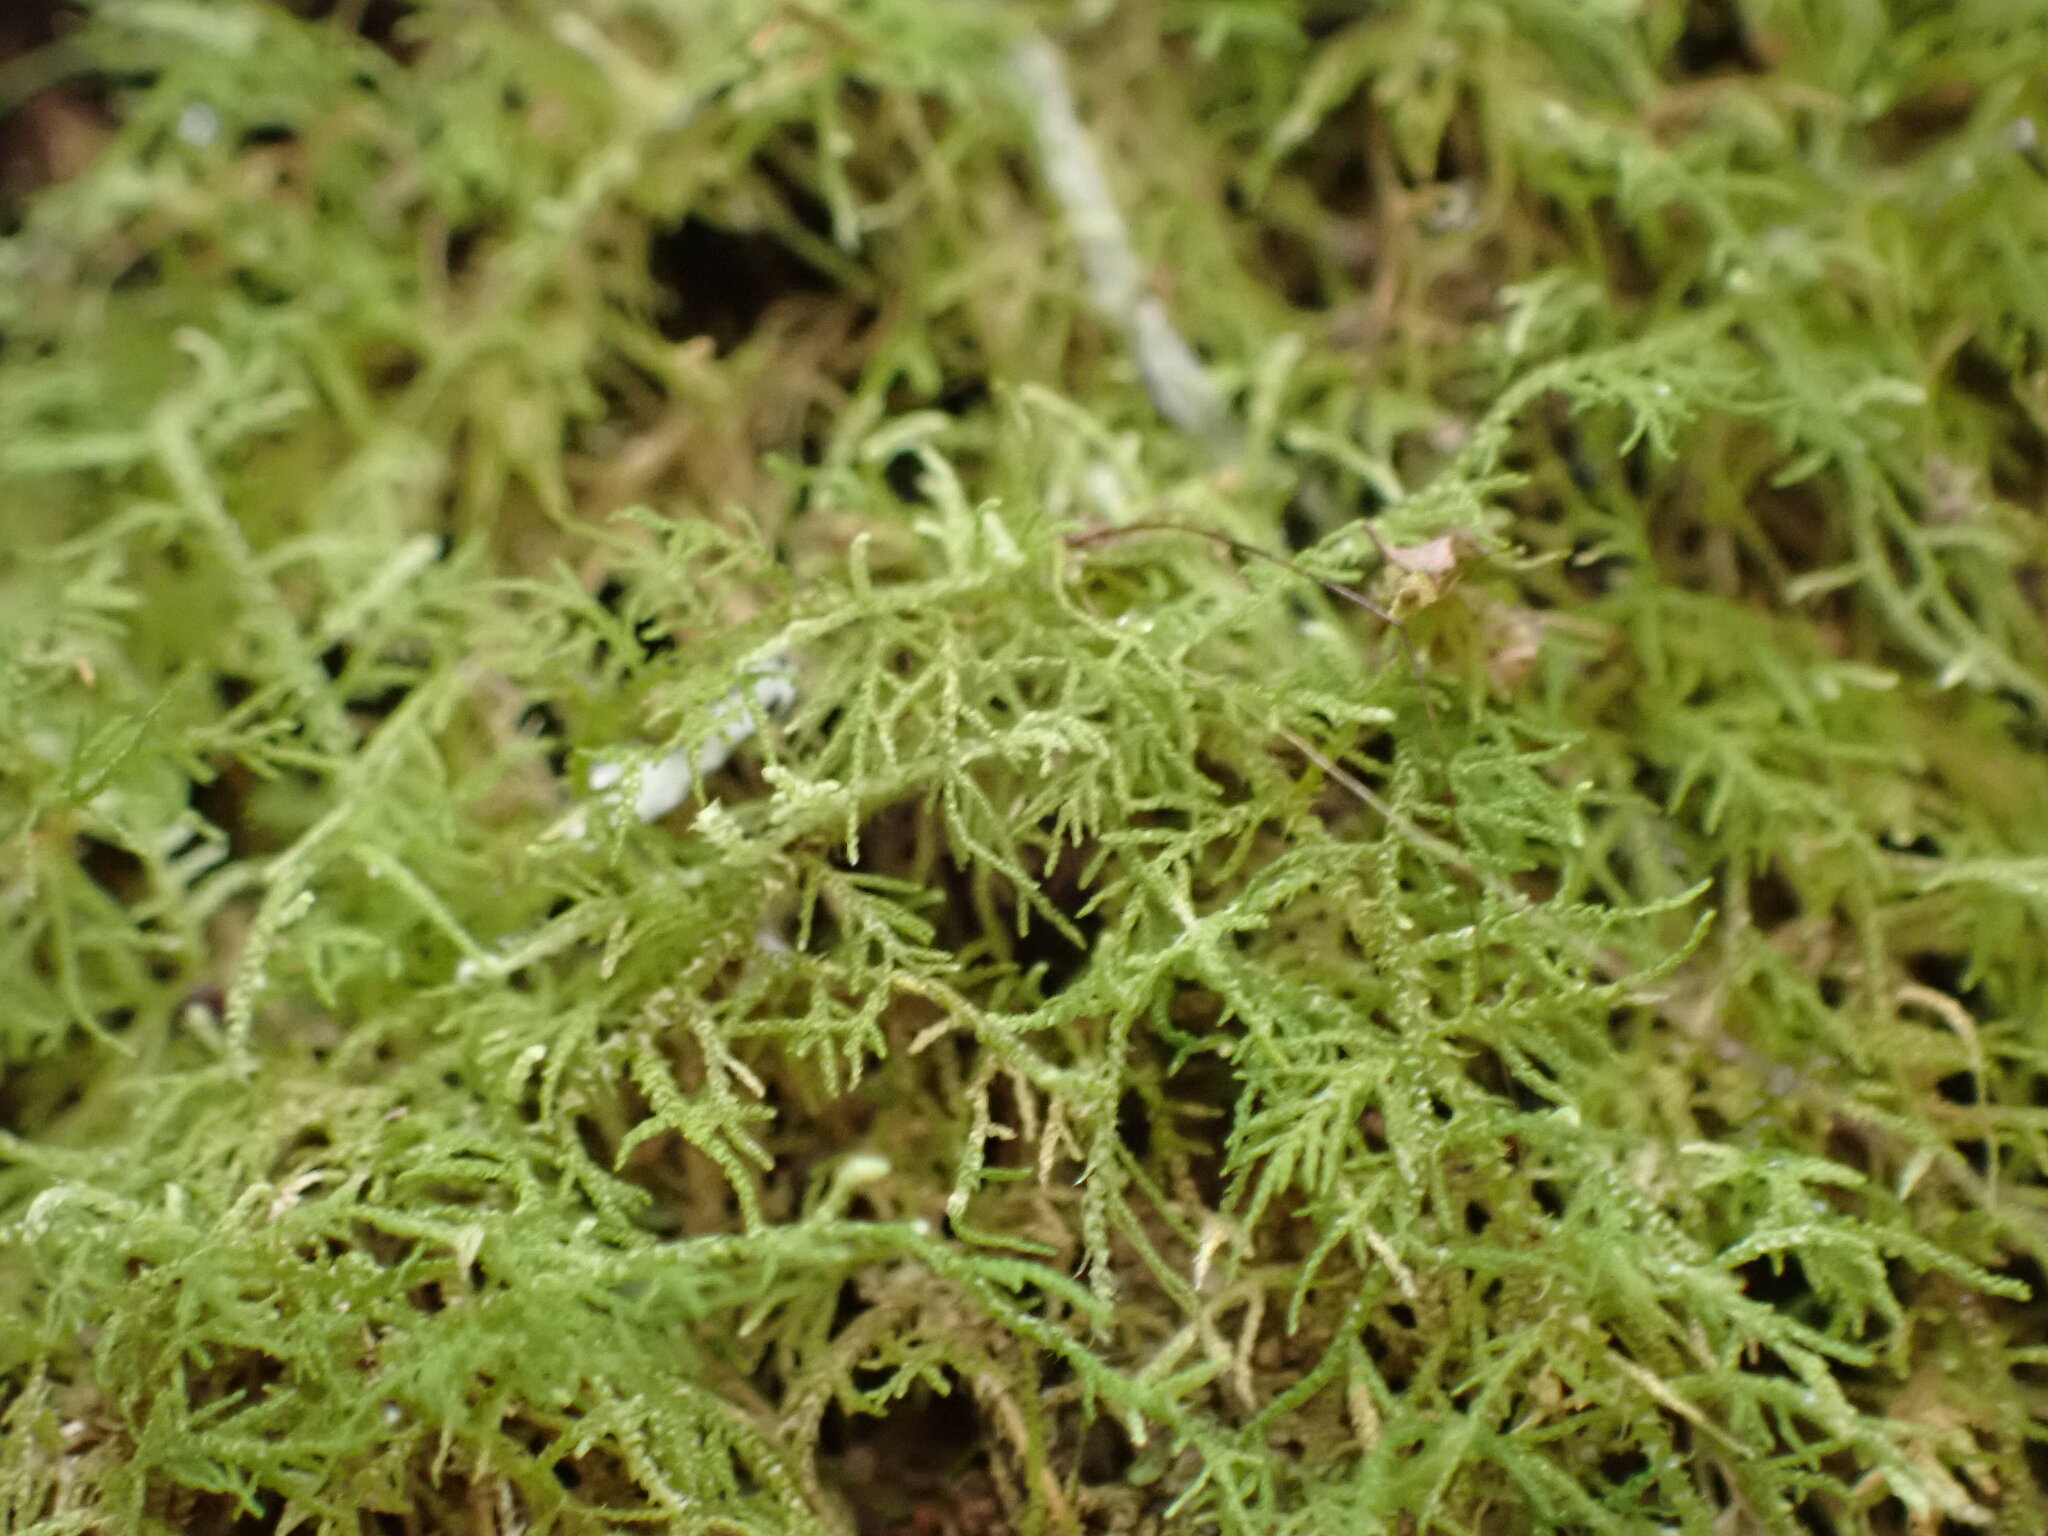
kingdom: Plantae
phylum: Bryophyta
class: Bryopsida
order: Hypnales
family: Thuidiaceae
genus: Thuidiopsis
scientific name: Thuidiopsis sparsa
